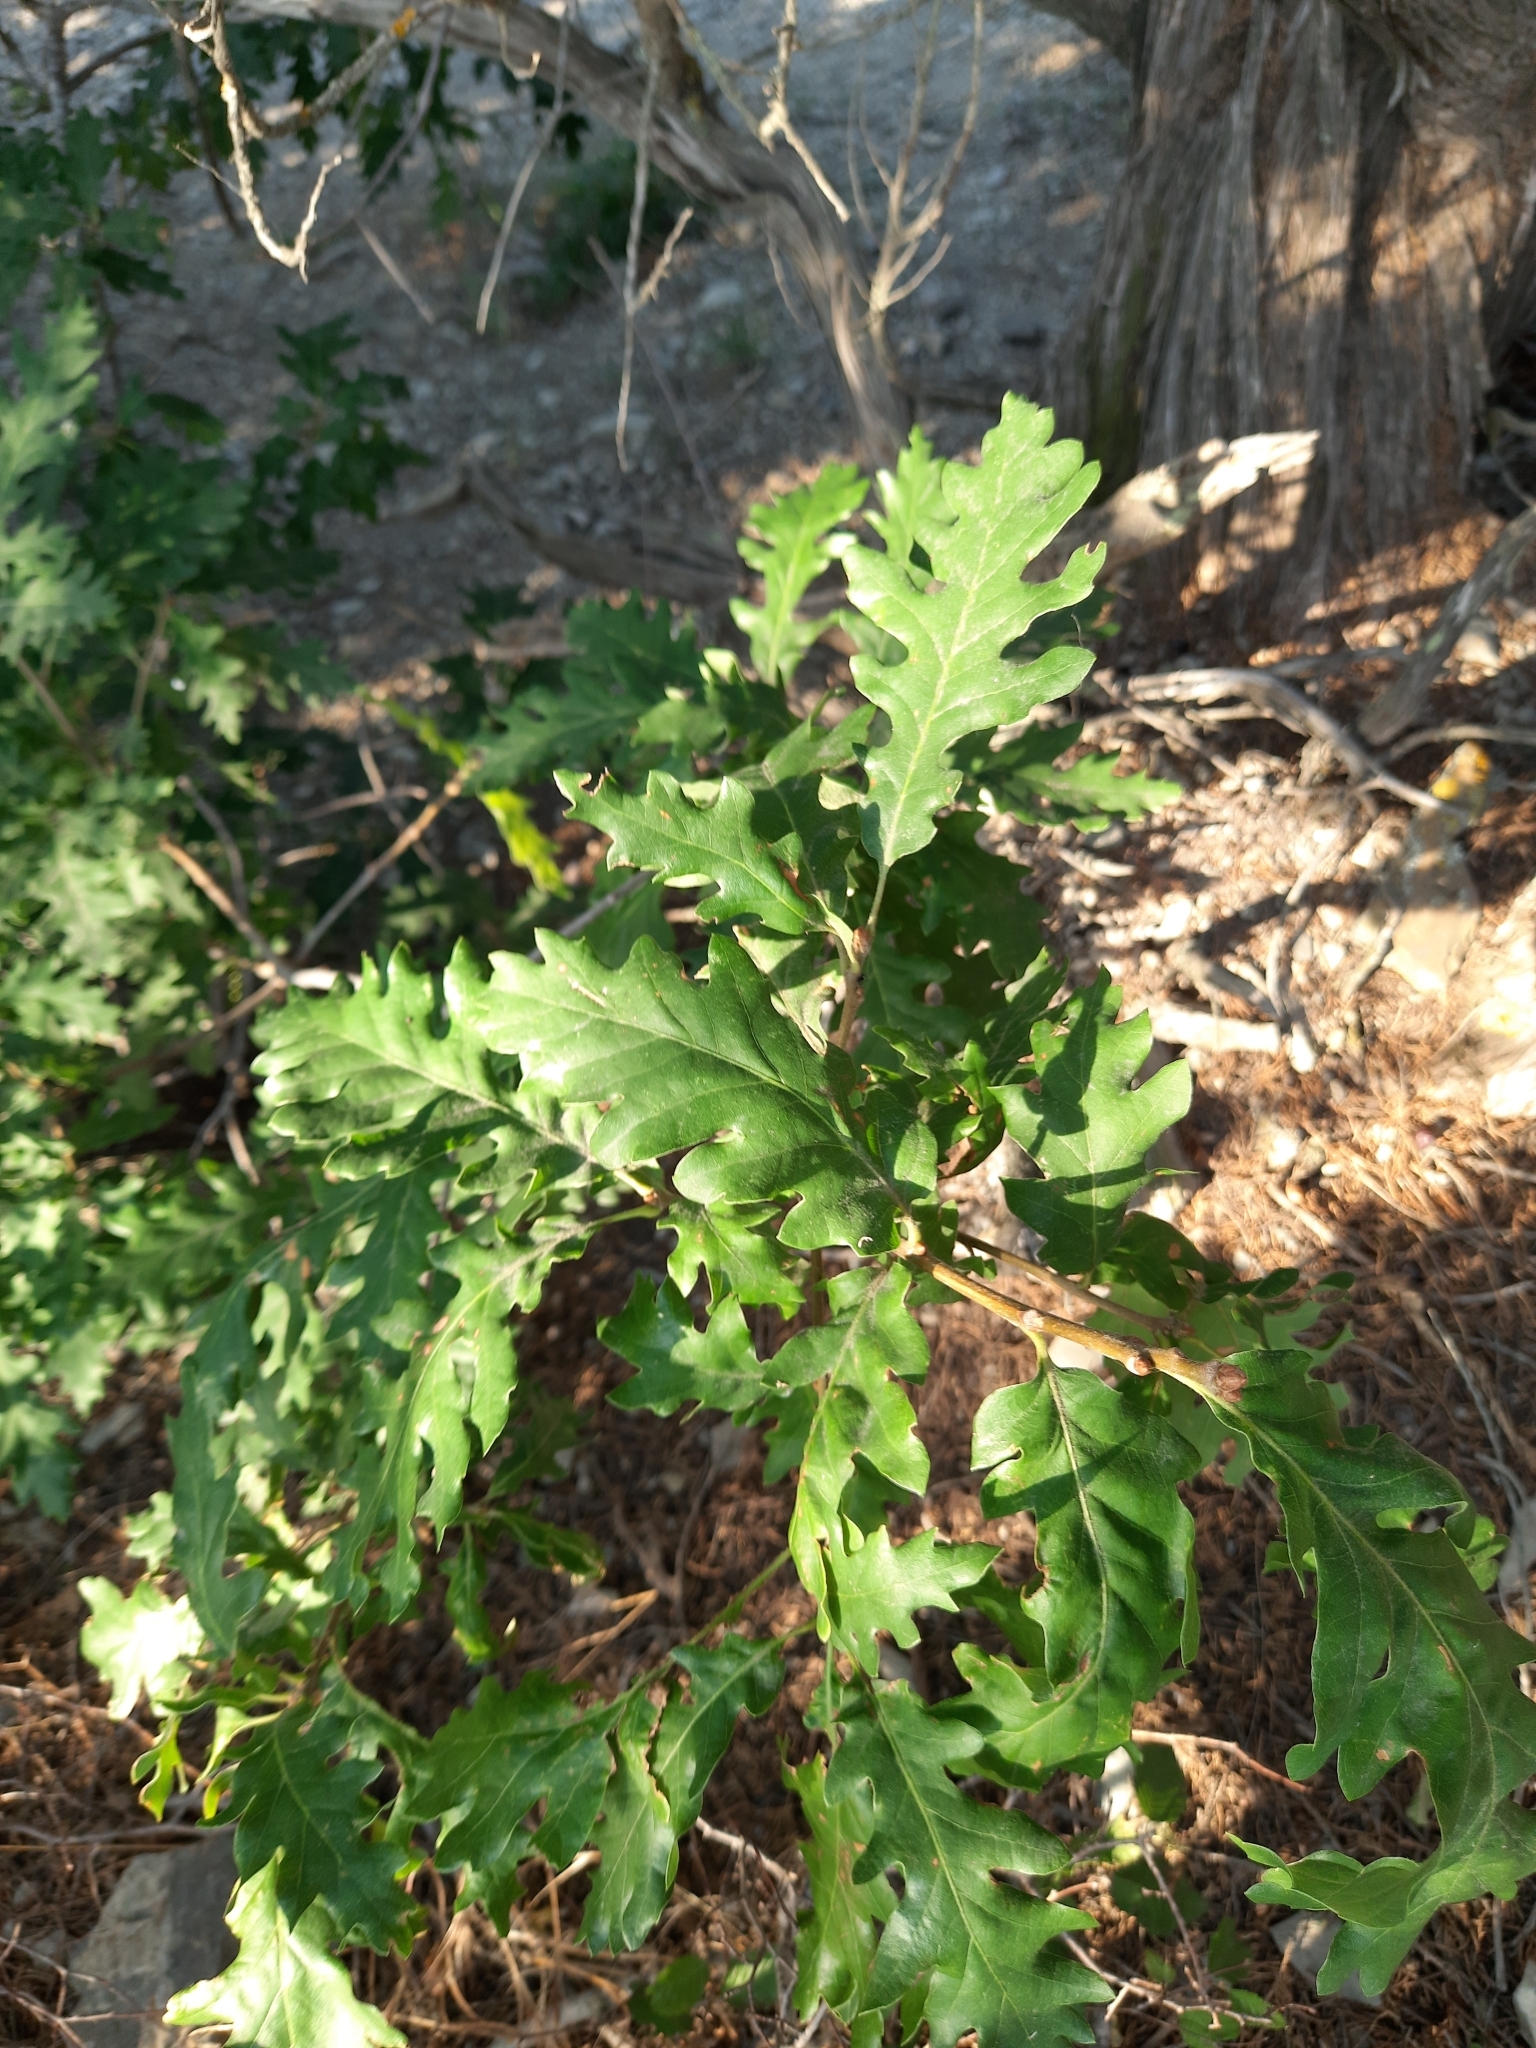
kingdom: Plantae
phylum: Tracheophyta
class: Magnoliopsida
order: Fagales
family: Fagaceae
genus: Quercus
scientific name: Quercus pubescens
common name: Downy oak
